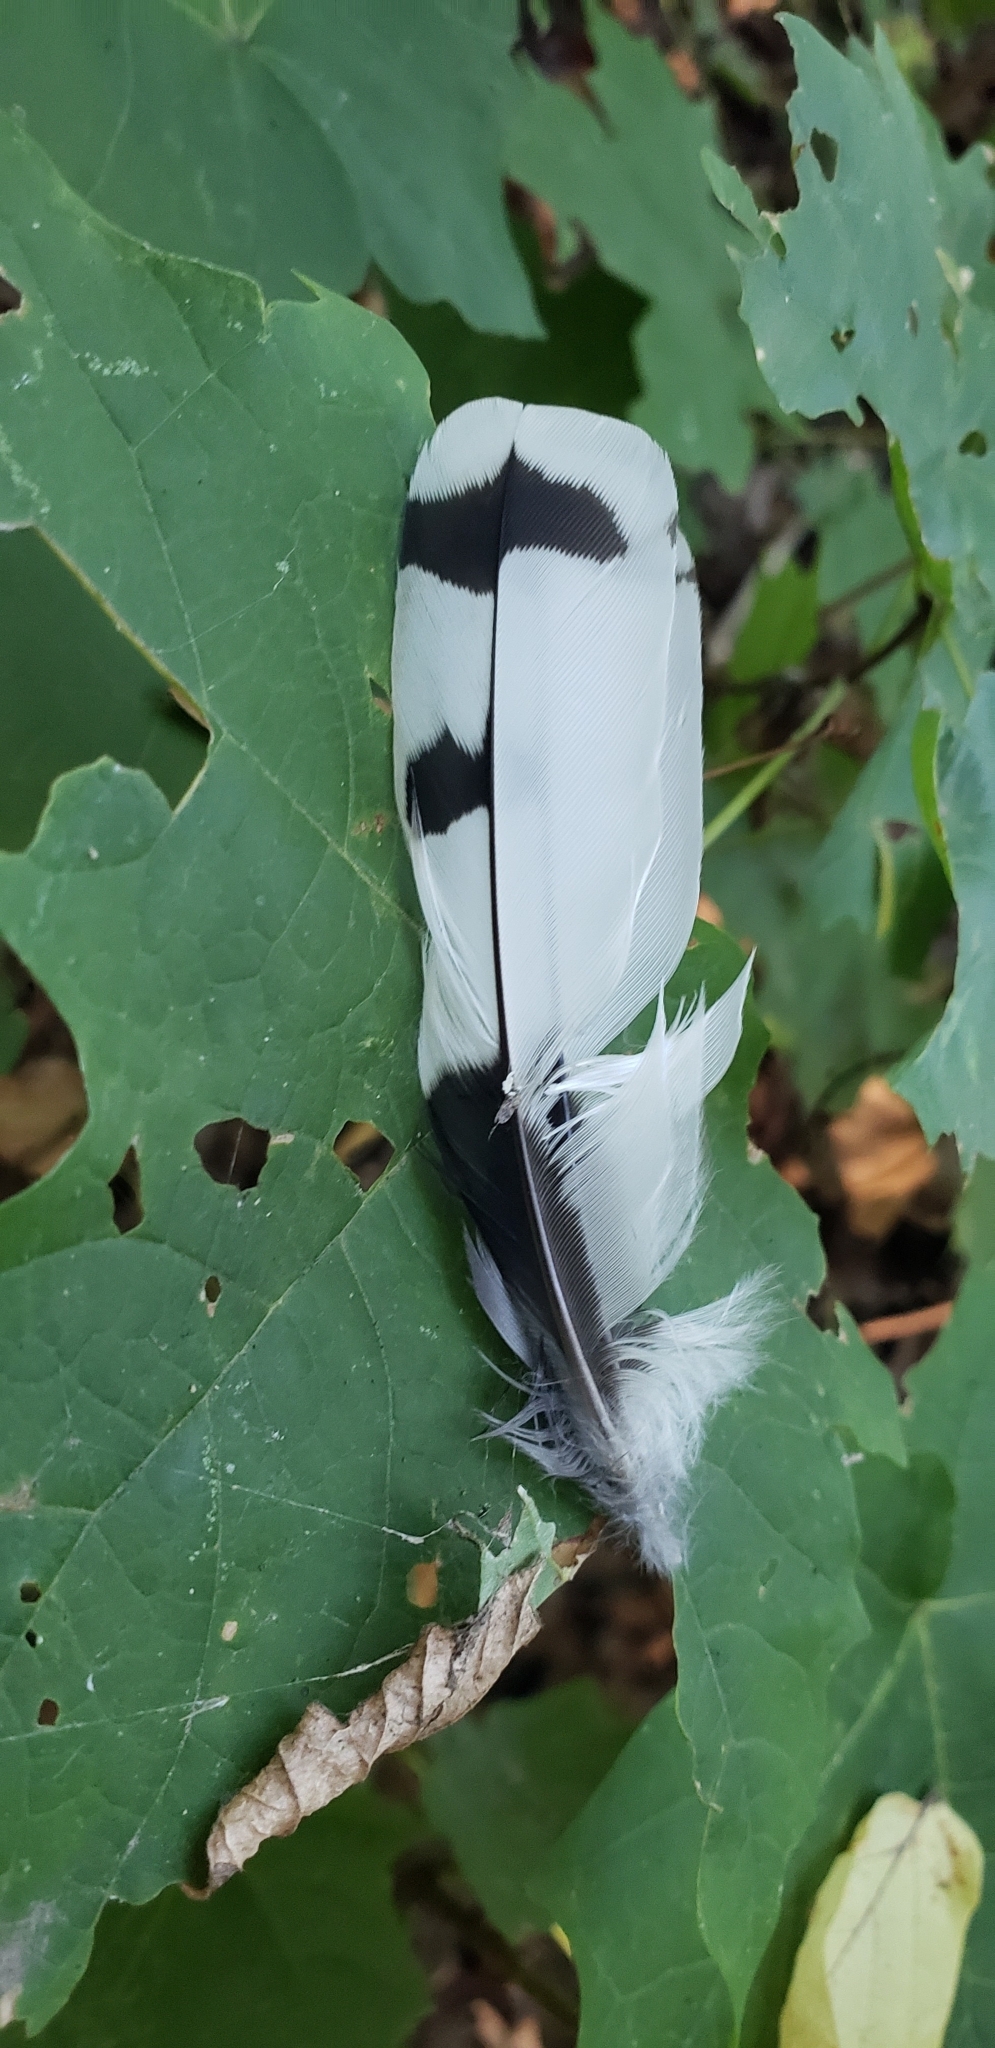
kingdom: Animalia
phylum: Chordata
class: Aves
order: Piciformes
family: Picidae
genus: Melanerpes
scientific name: Melanerpes erythrocephalus
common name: Red-headed woodpecker
